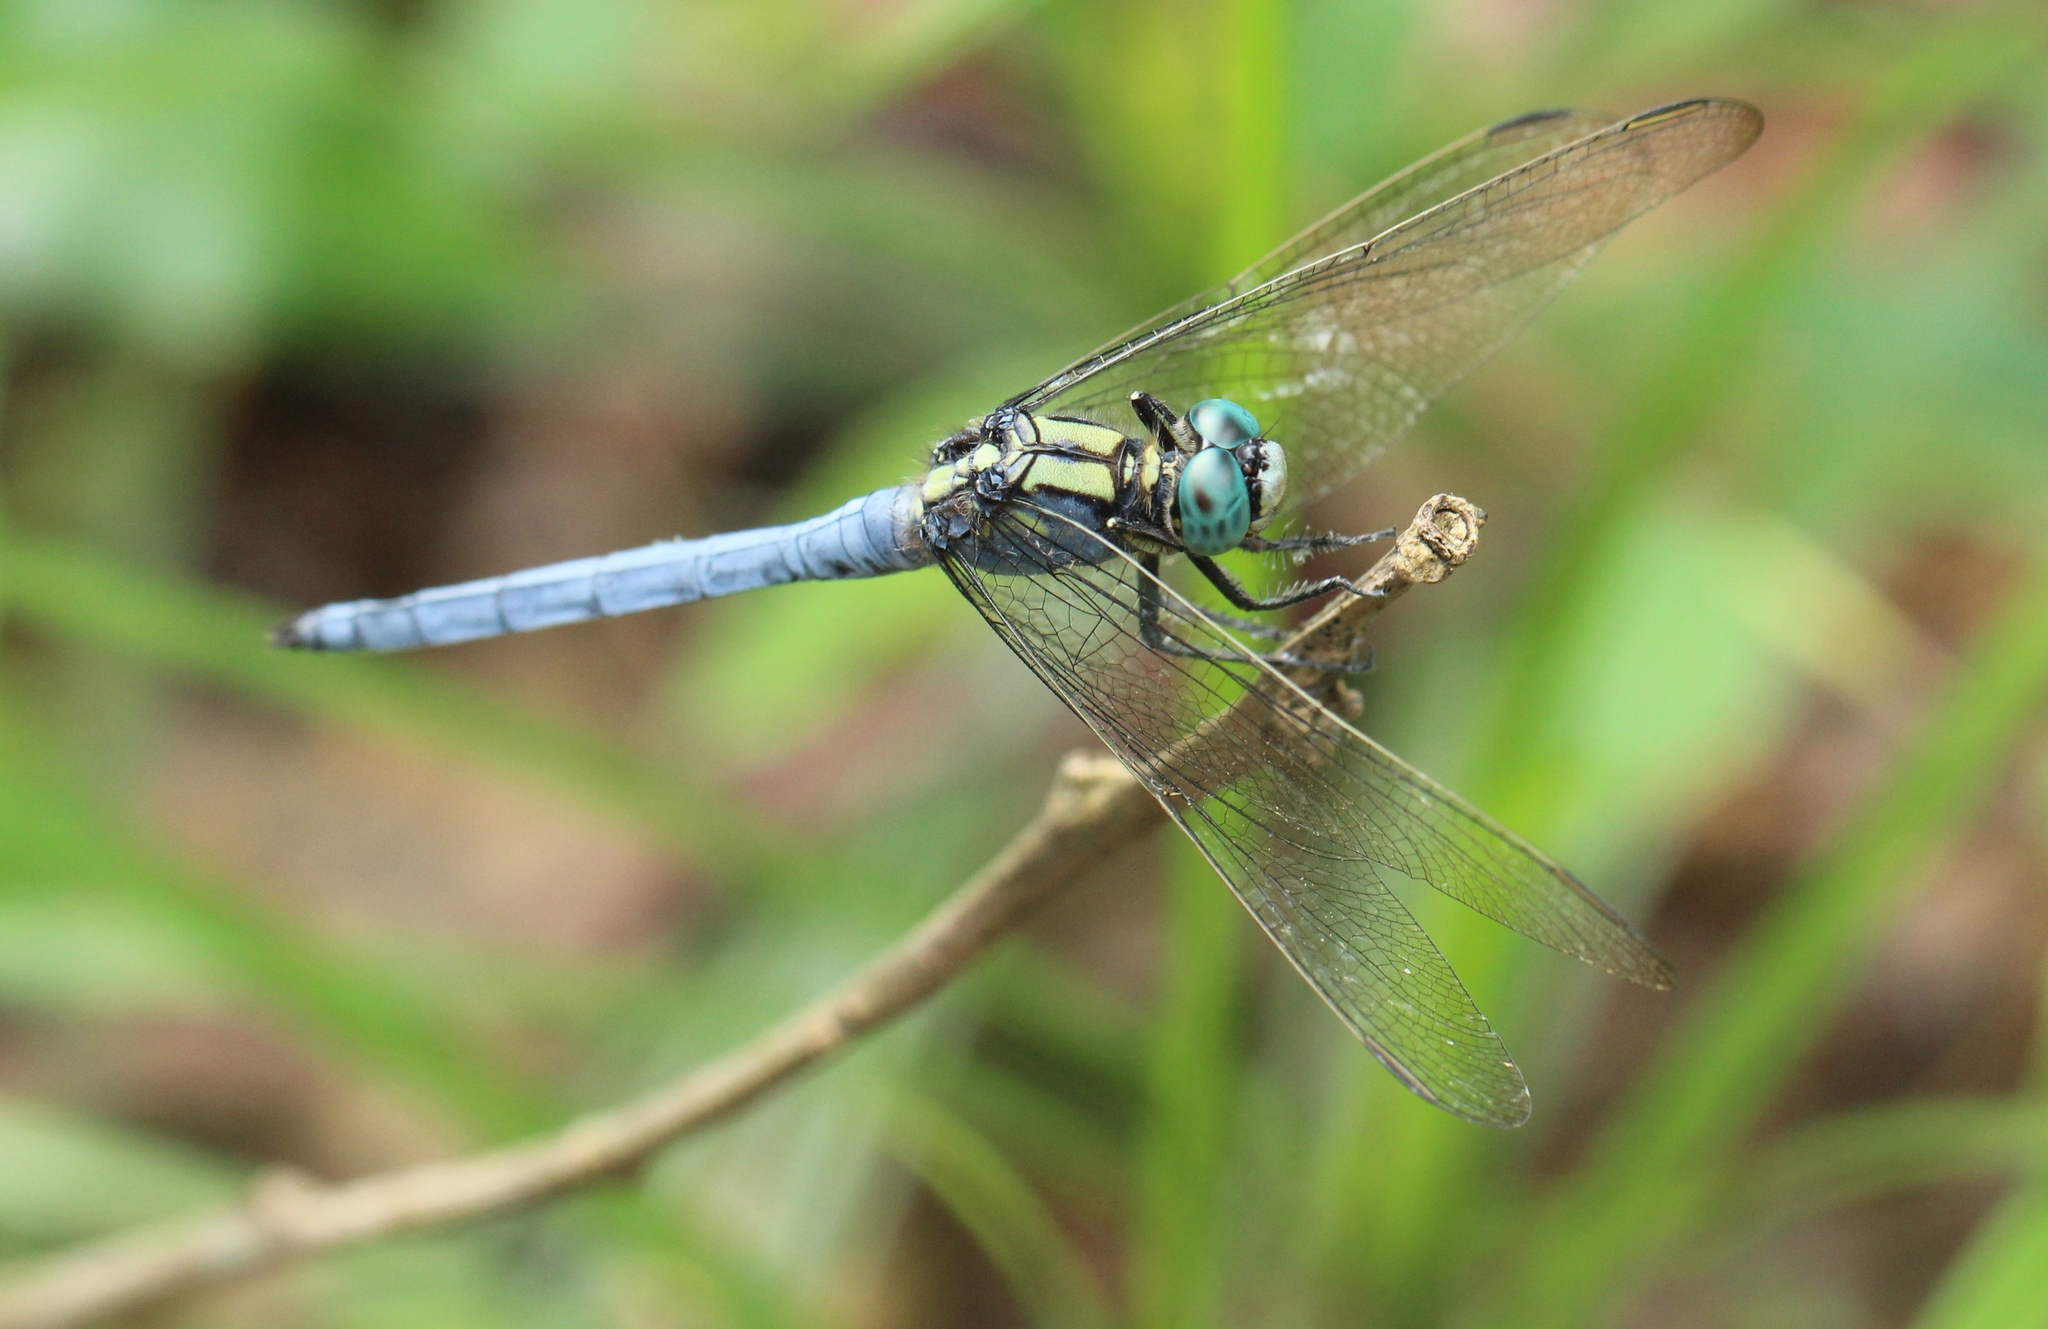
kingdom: Animalia
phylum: Arthropoda
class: Insecta
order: Odonata
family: Libellulidae
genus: Orthetrum
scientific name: Orthetrum luzonicum
